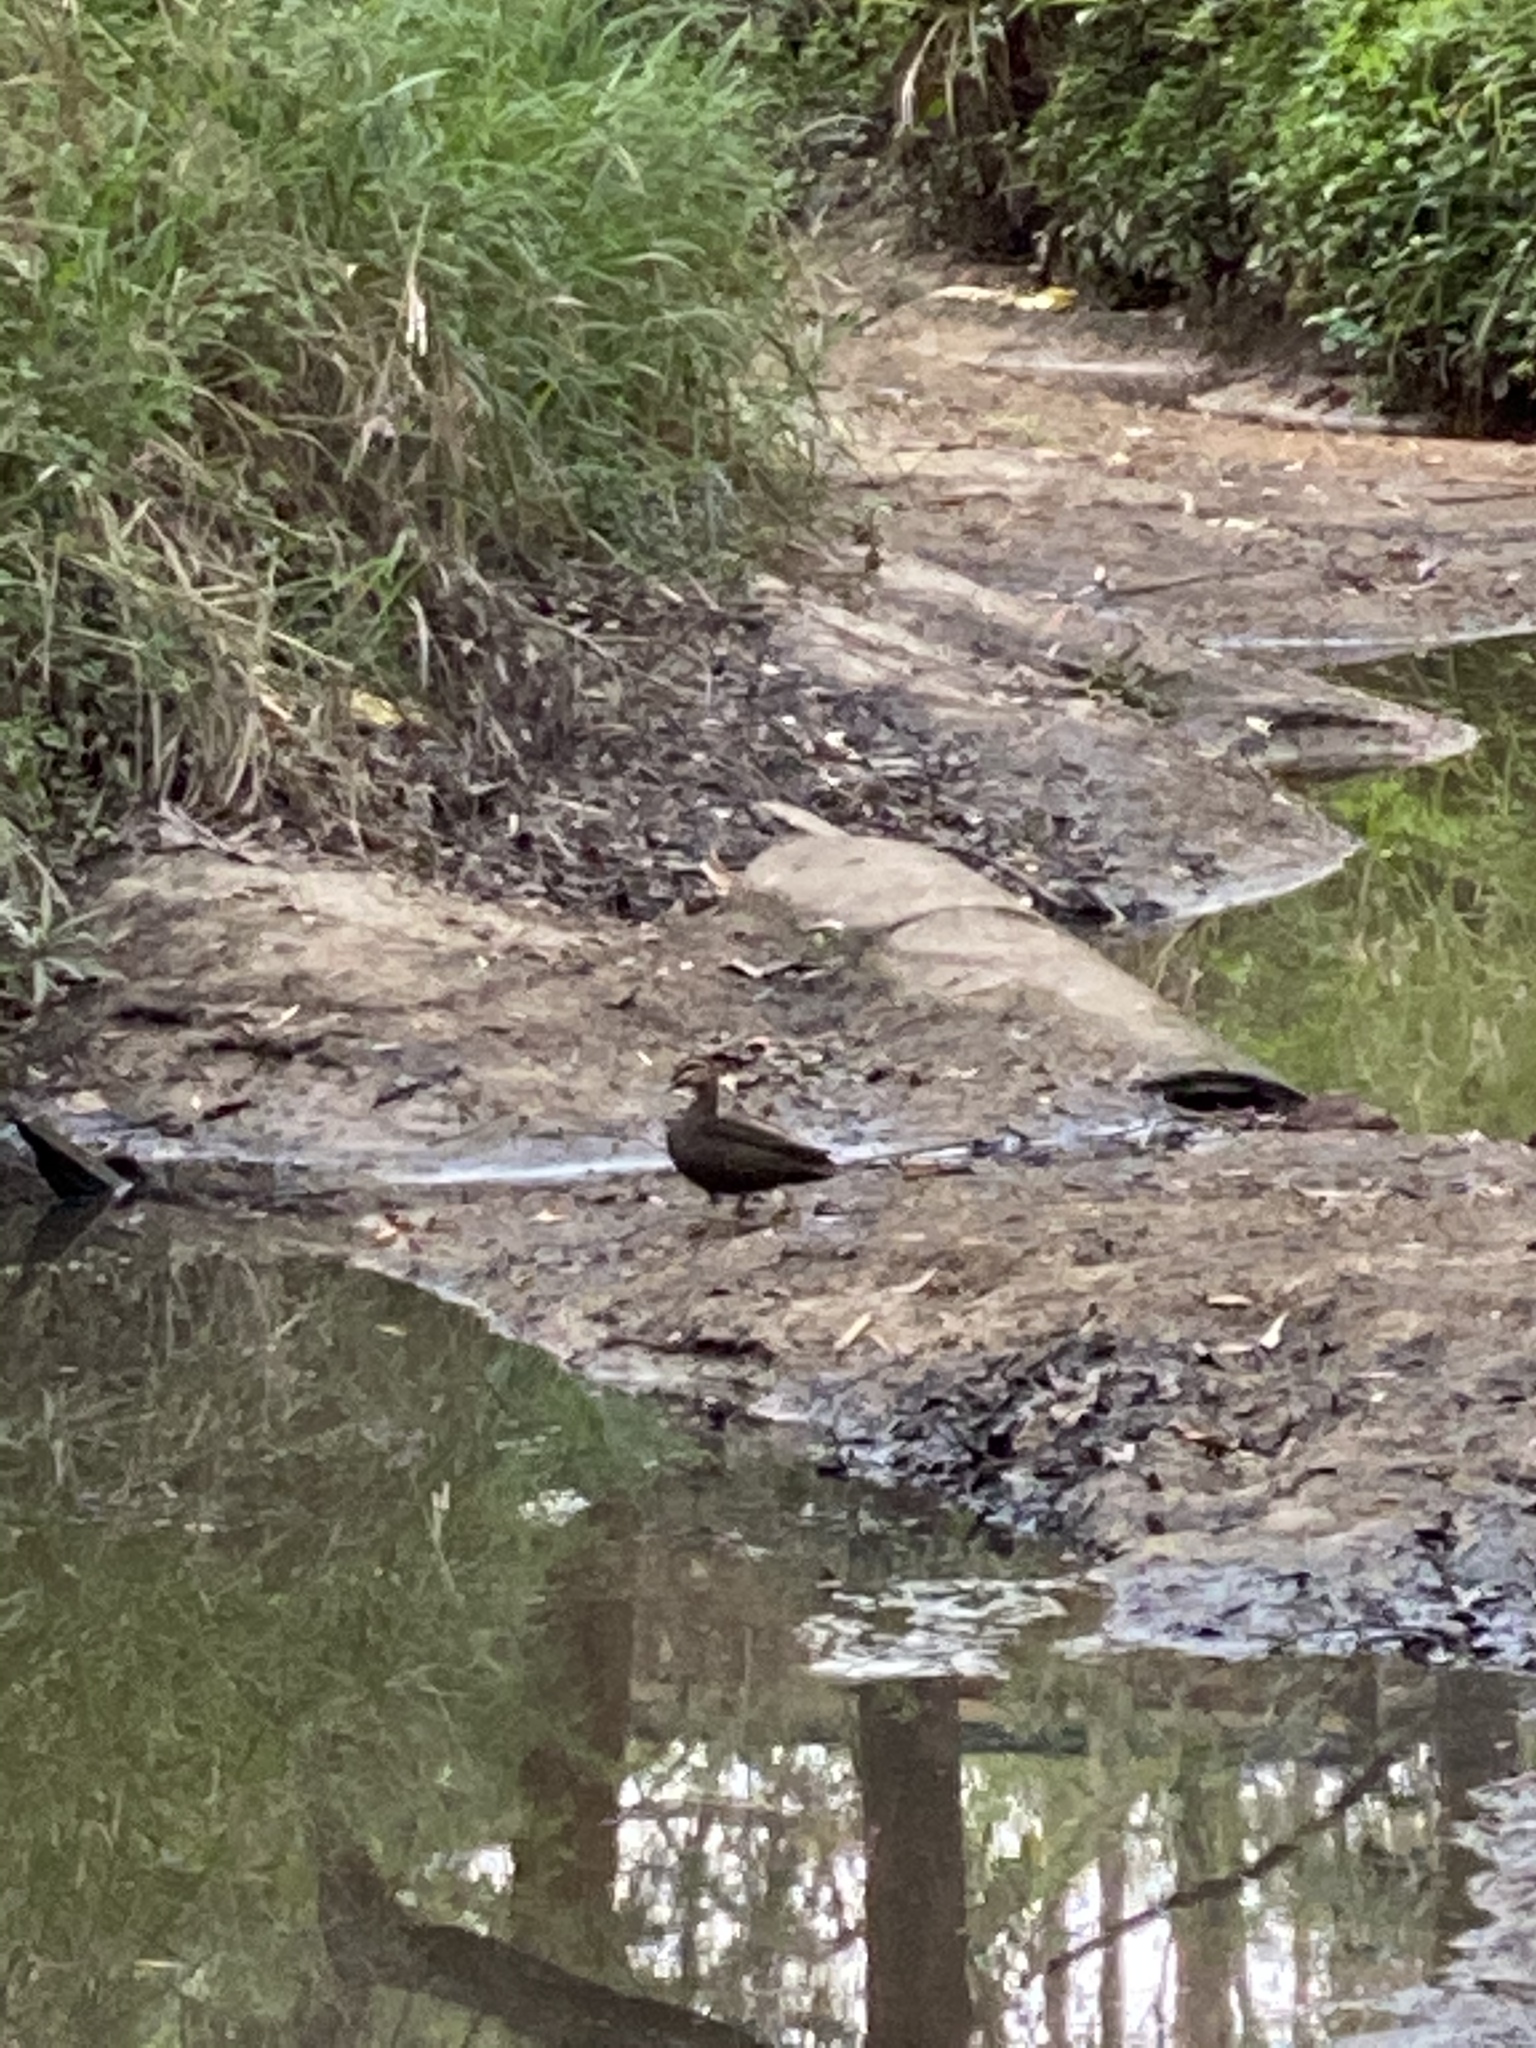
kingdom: Animalia
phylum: Chordata
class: Aves
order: Anseriformes
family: Anatidae
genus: Anas
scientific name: Anas superciliosa
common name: Pacific black duck
